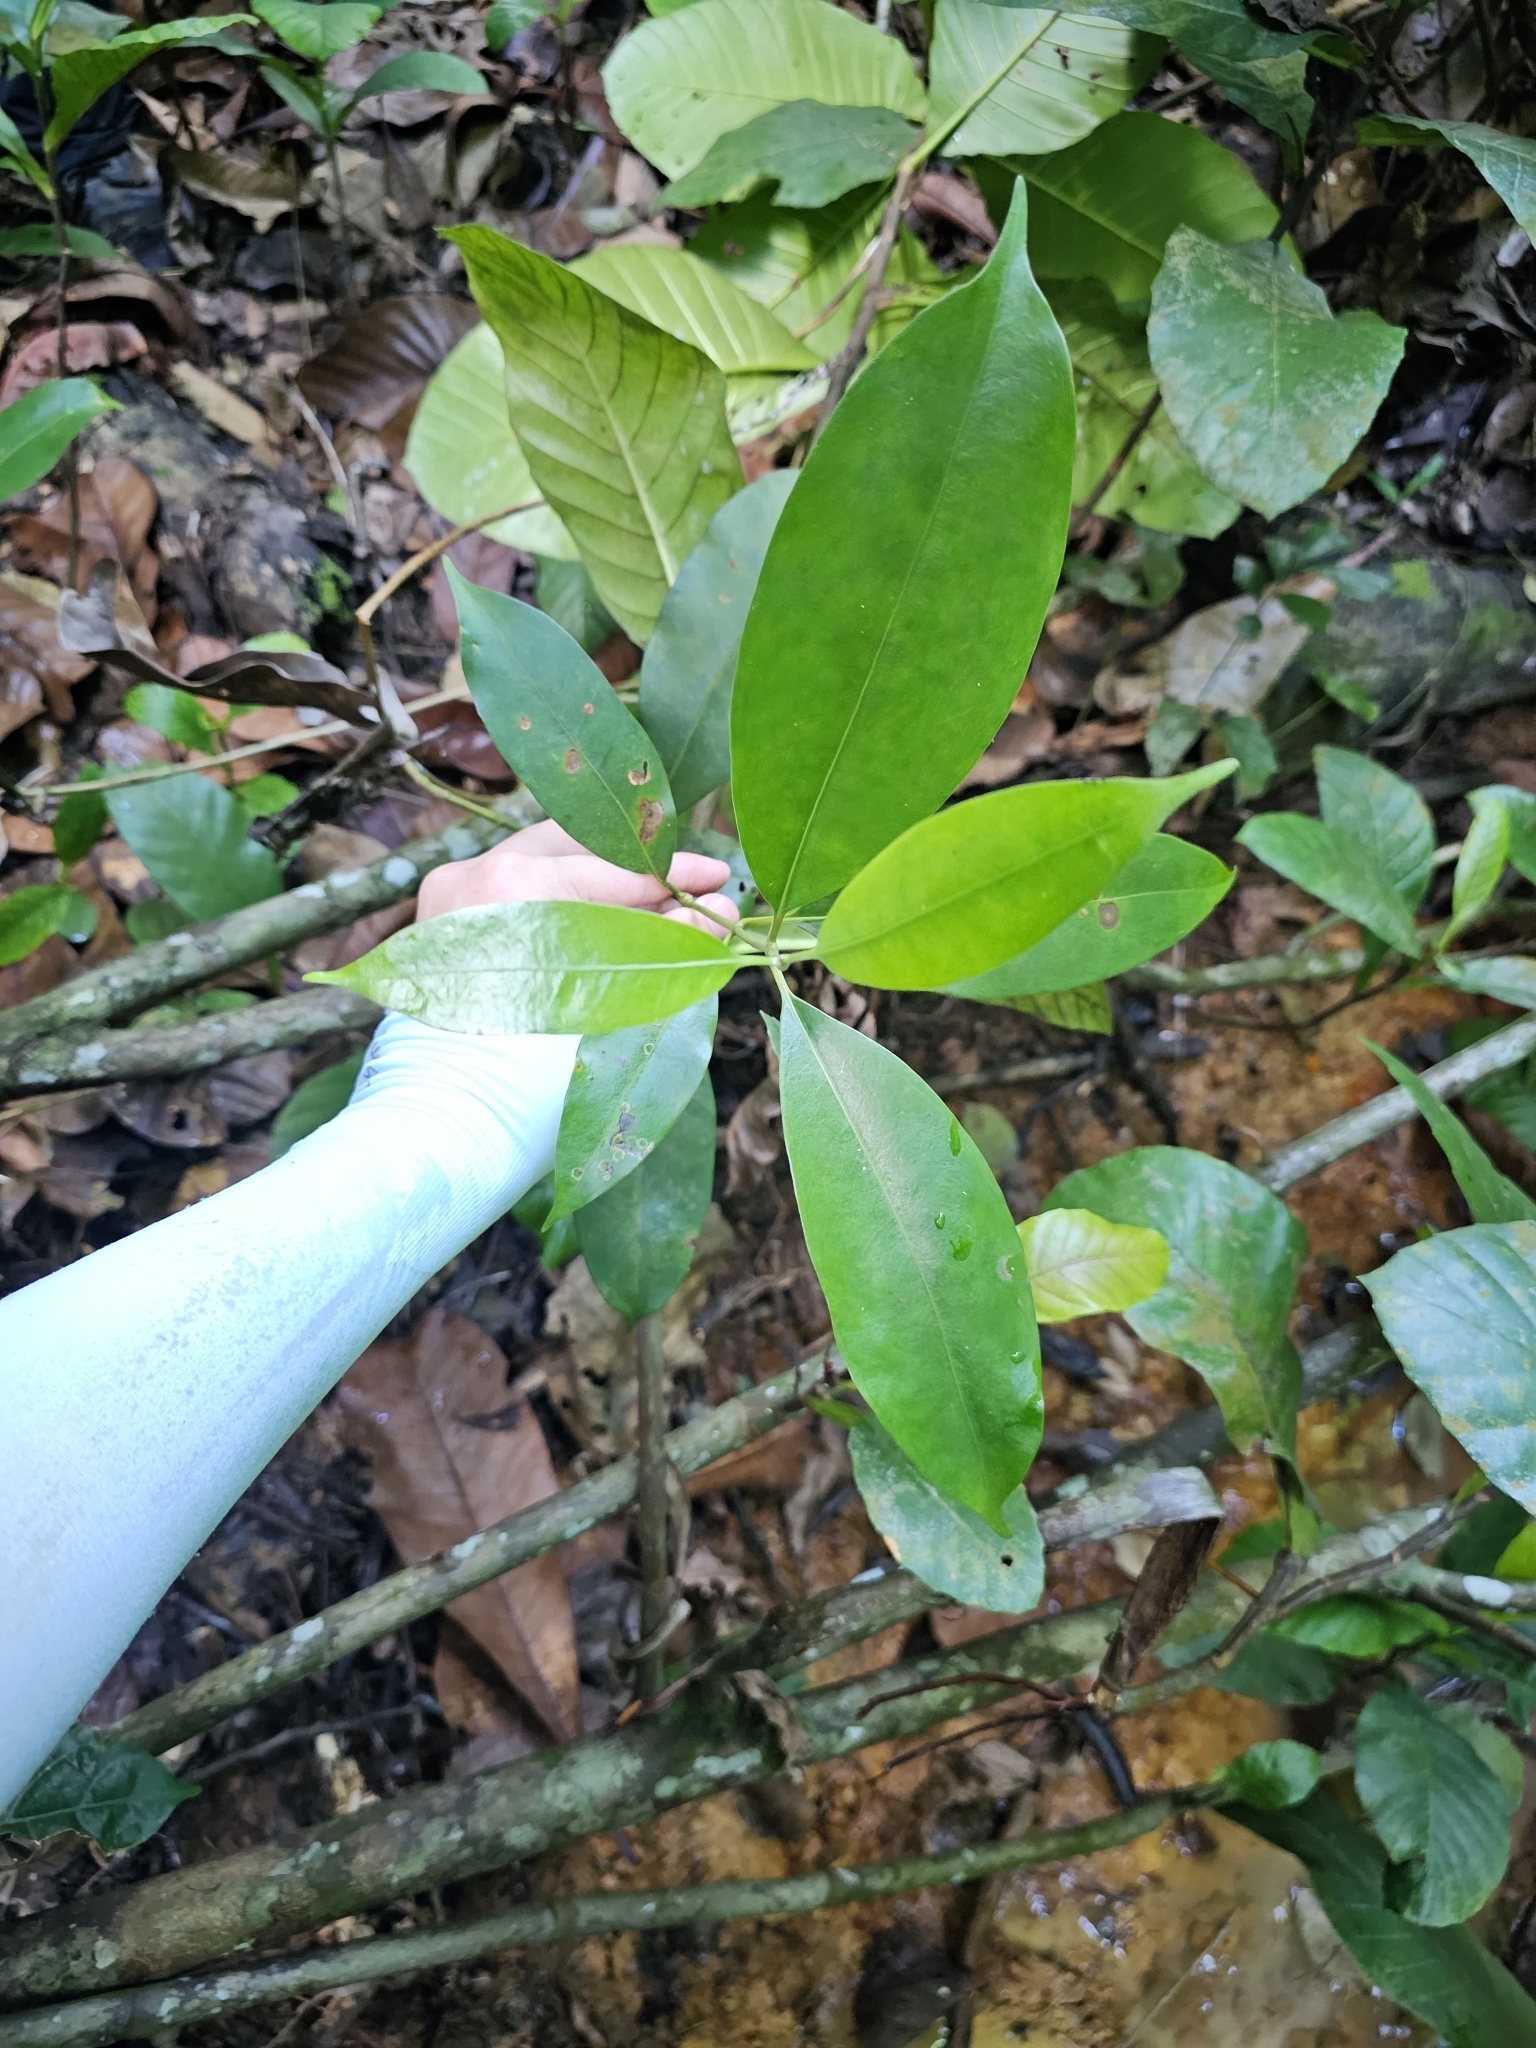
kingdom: Plantae
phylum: Tracheophyta
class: Magnoliopsida
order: Gentianales
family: Rubiaceae
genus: Gynochthodes
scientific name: Gynochthodes rigida
